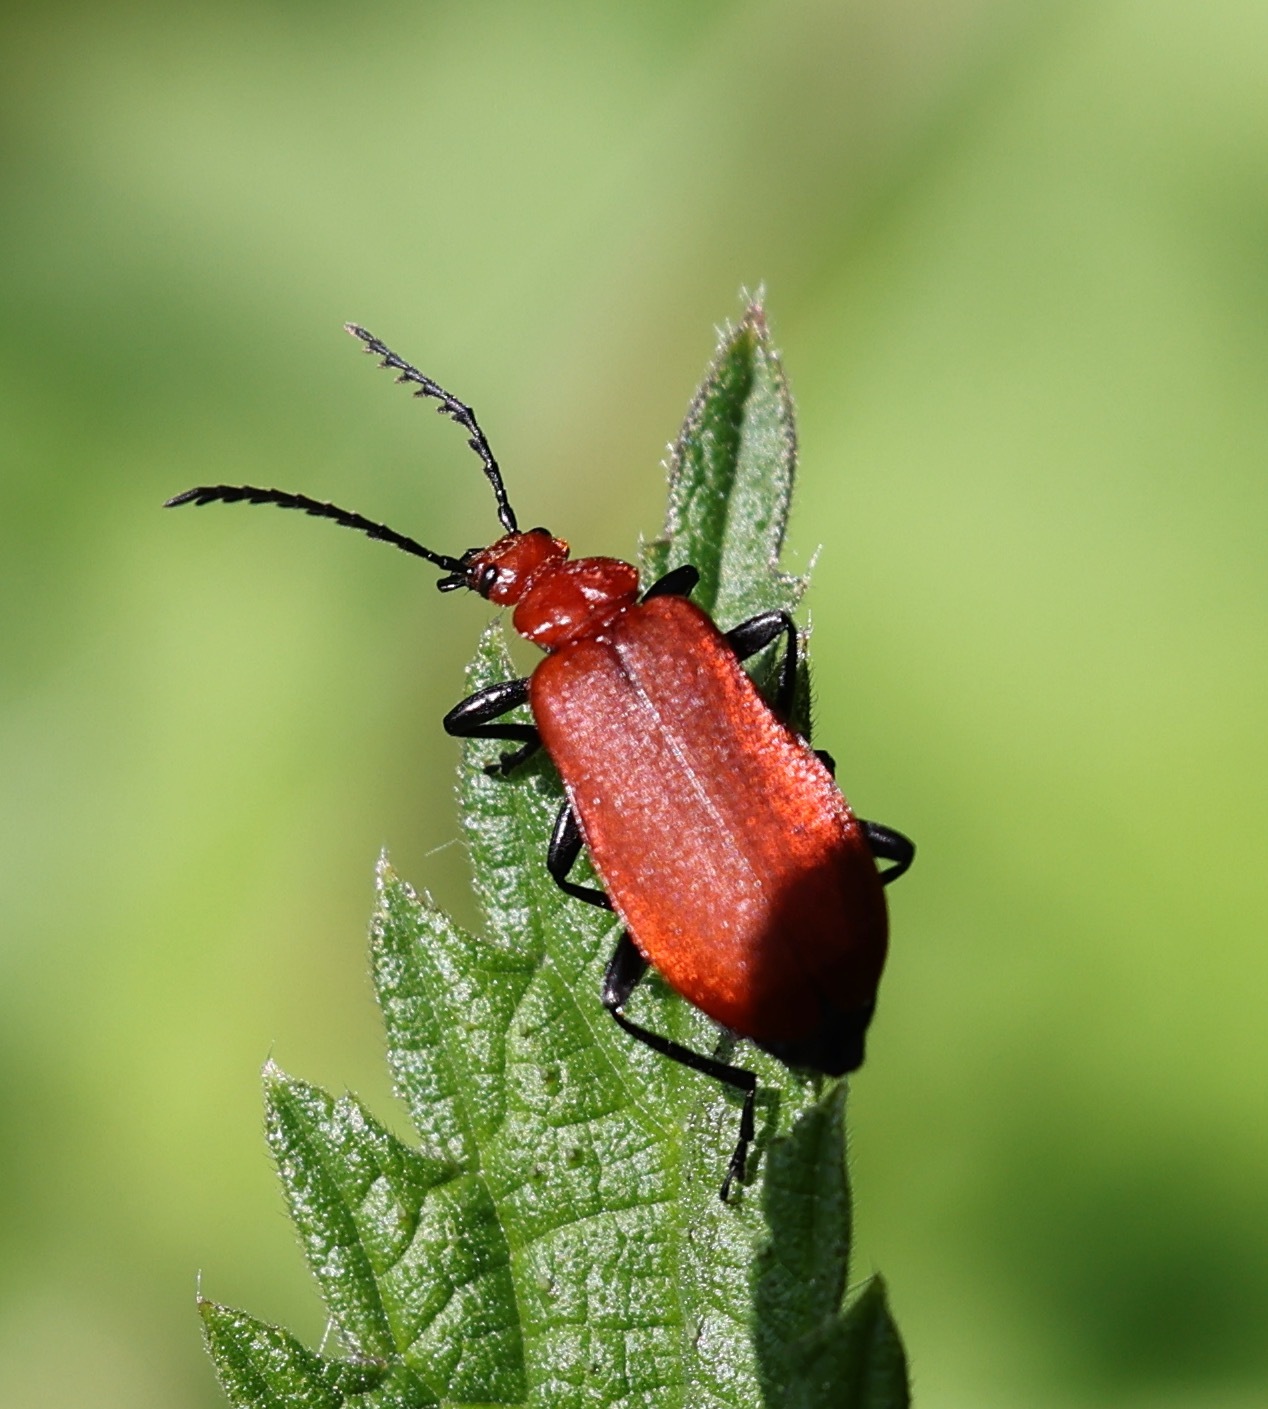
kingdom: Animalia
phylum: Arthropoda
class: Insecta
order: Coleoptera
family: Pyrochroidae
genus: Pyrochroa
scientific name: Pyrochroa serraticornis
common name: Red-headed cardinal beetle
